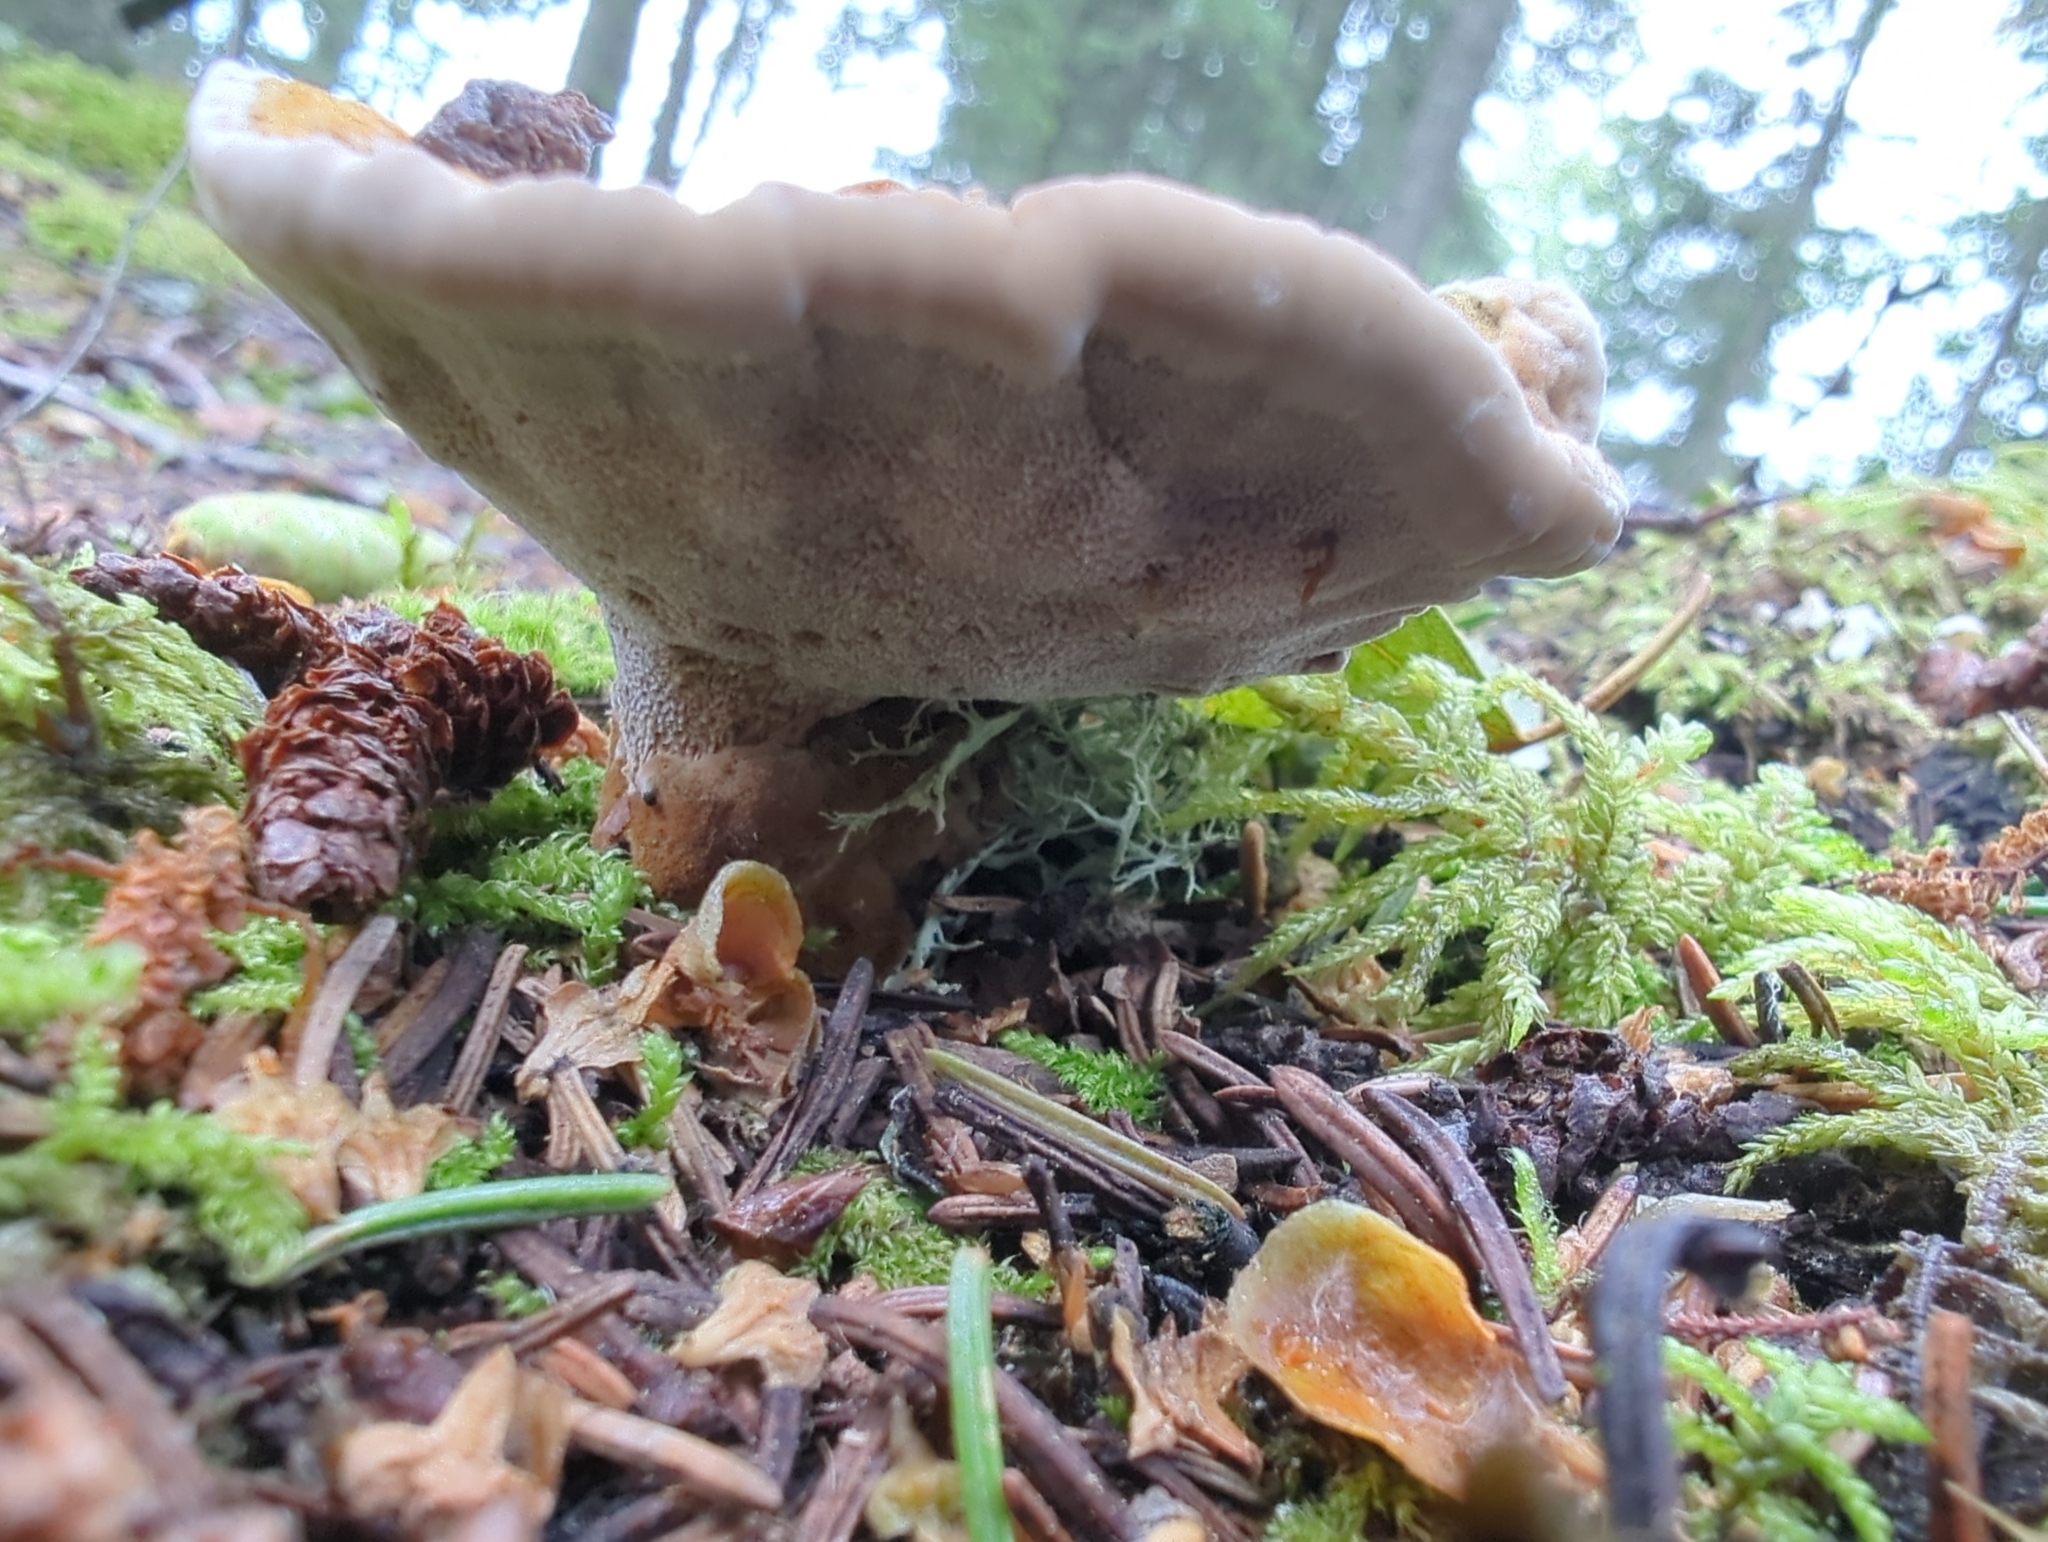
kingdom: Fungi
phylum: Basidiomycota
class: Agaricomycetes
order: Hymenochaetales
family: Hymenochaetaceae
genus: Onnia
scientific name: Onnia tomentosa
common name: Velvet rosette
